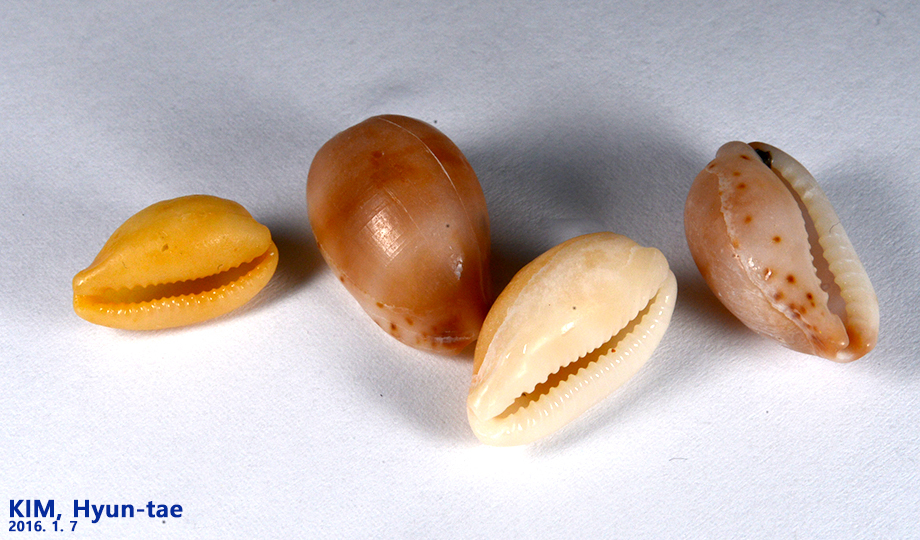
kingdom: Animalia
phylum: Mollusca
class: Gastropoda
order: Littorinimorpha
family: Cypraeidae
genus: Palmadusta
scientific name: Palmadusta artuffeli
